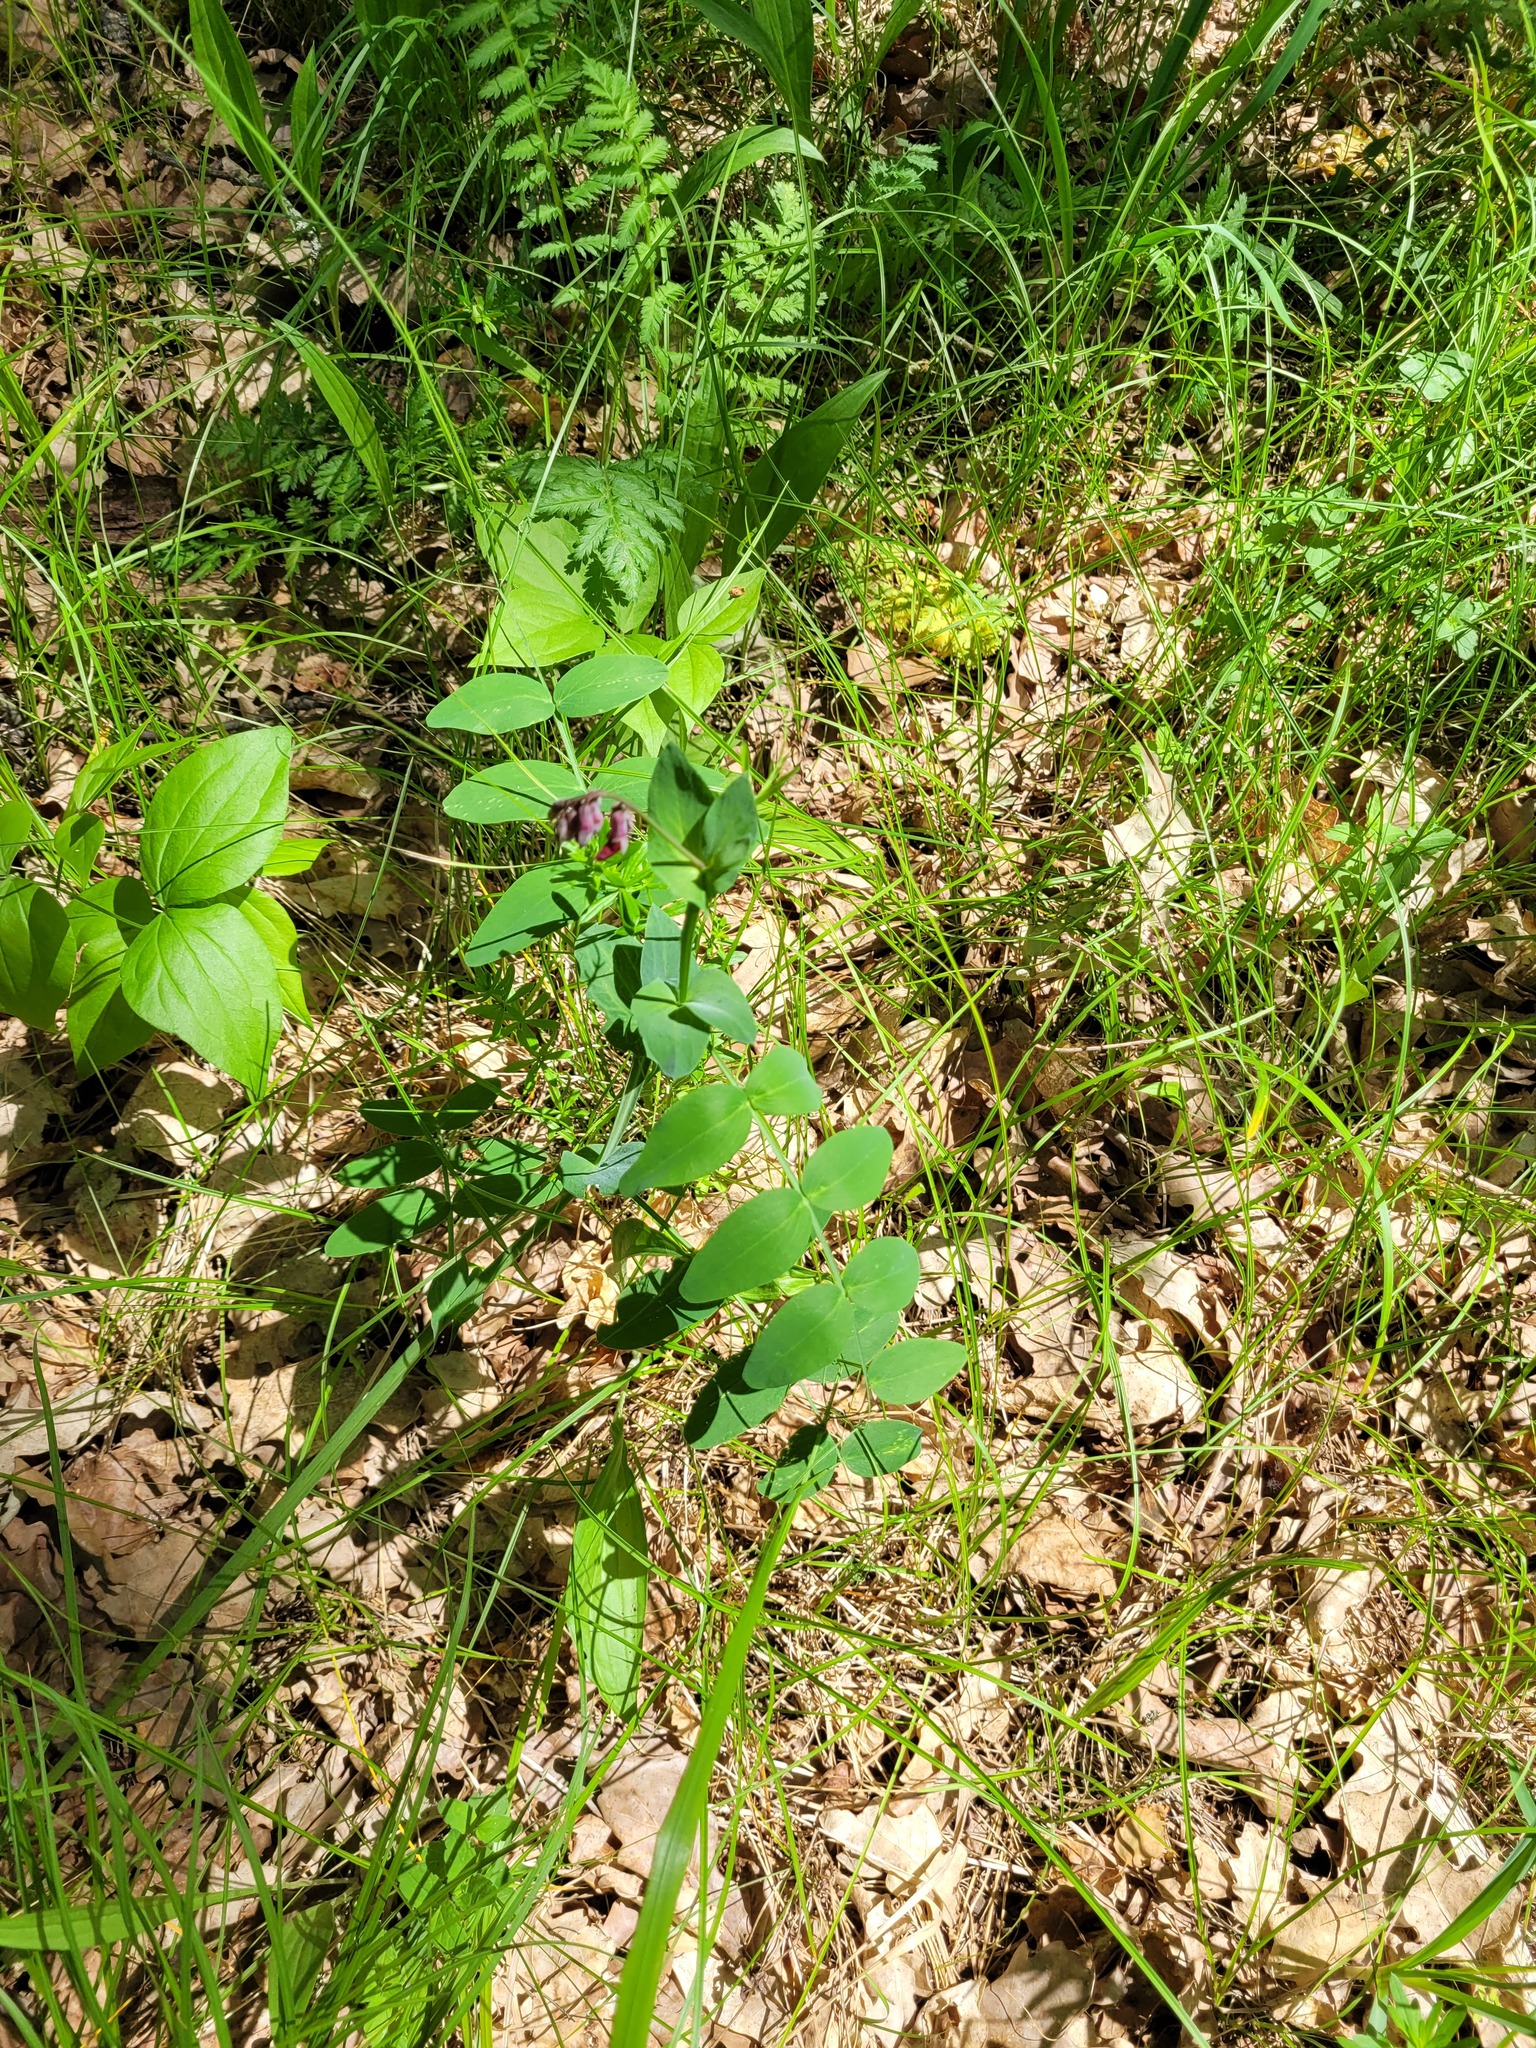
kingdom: Plantae
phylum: Tracheophyta
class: Magnoliopsida
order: Fabales
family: Fabaceae
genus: Lathyrus
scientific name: Lathyrus pisiformis
